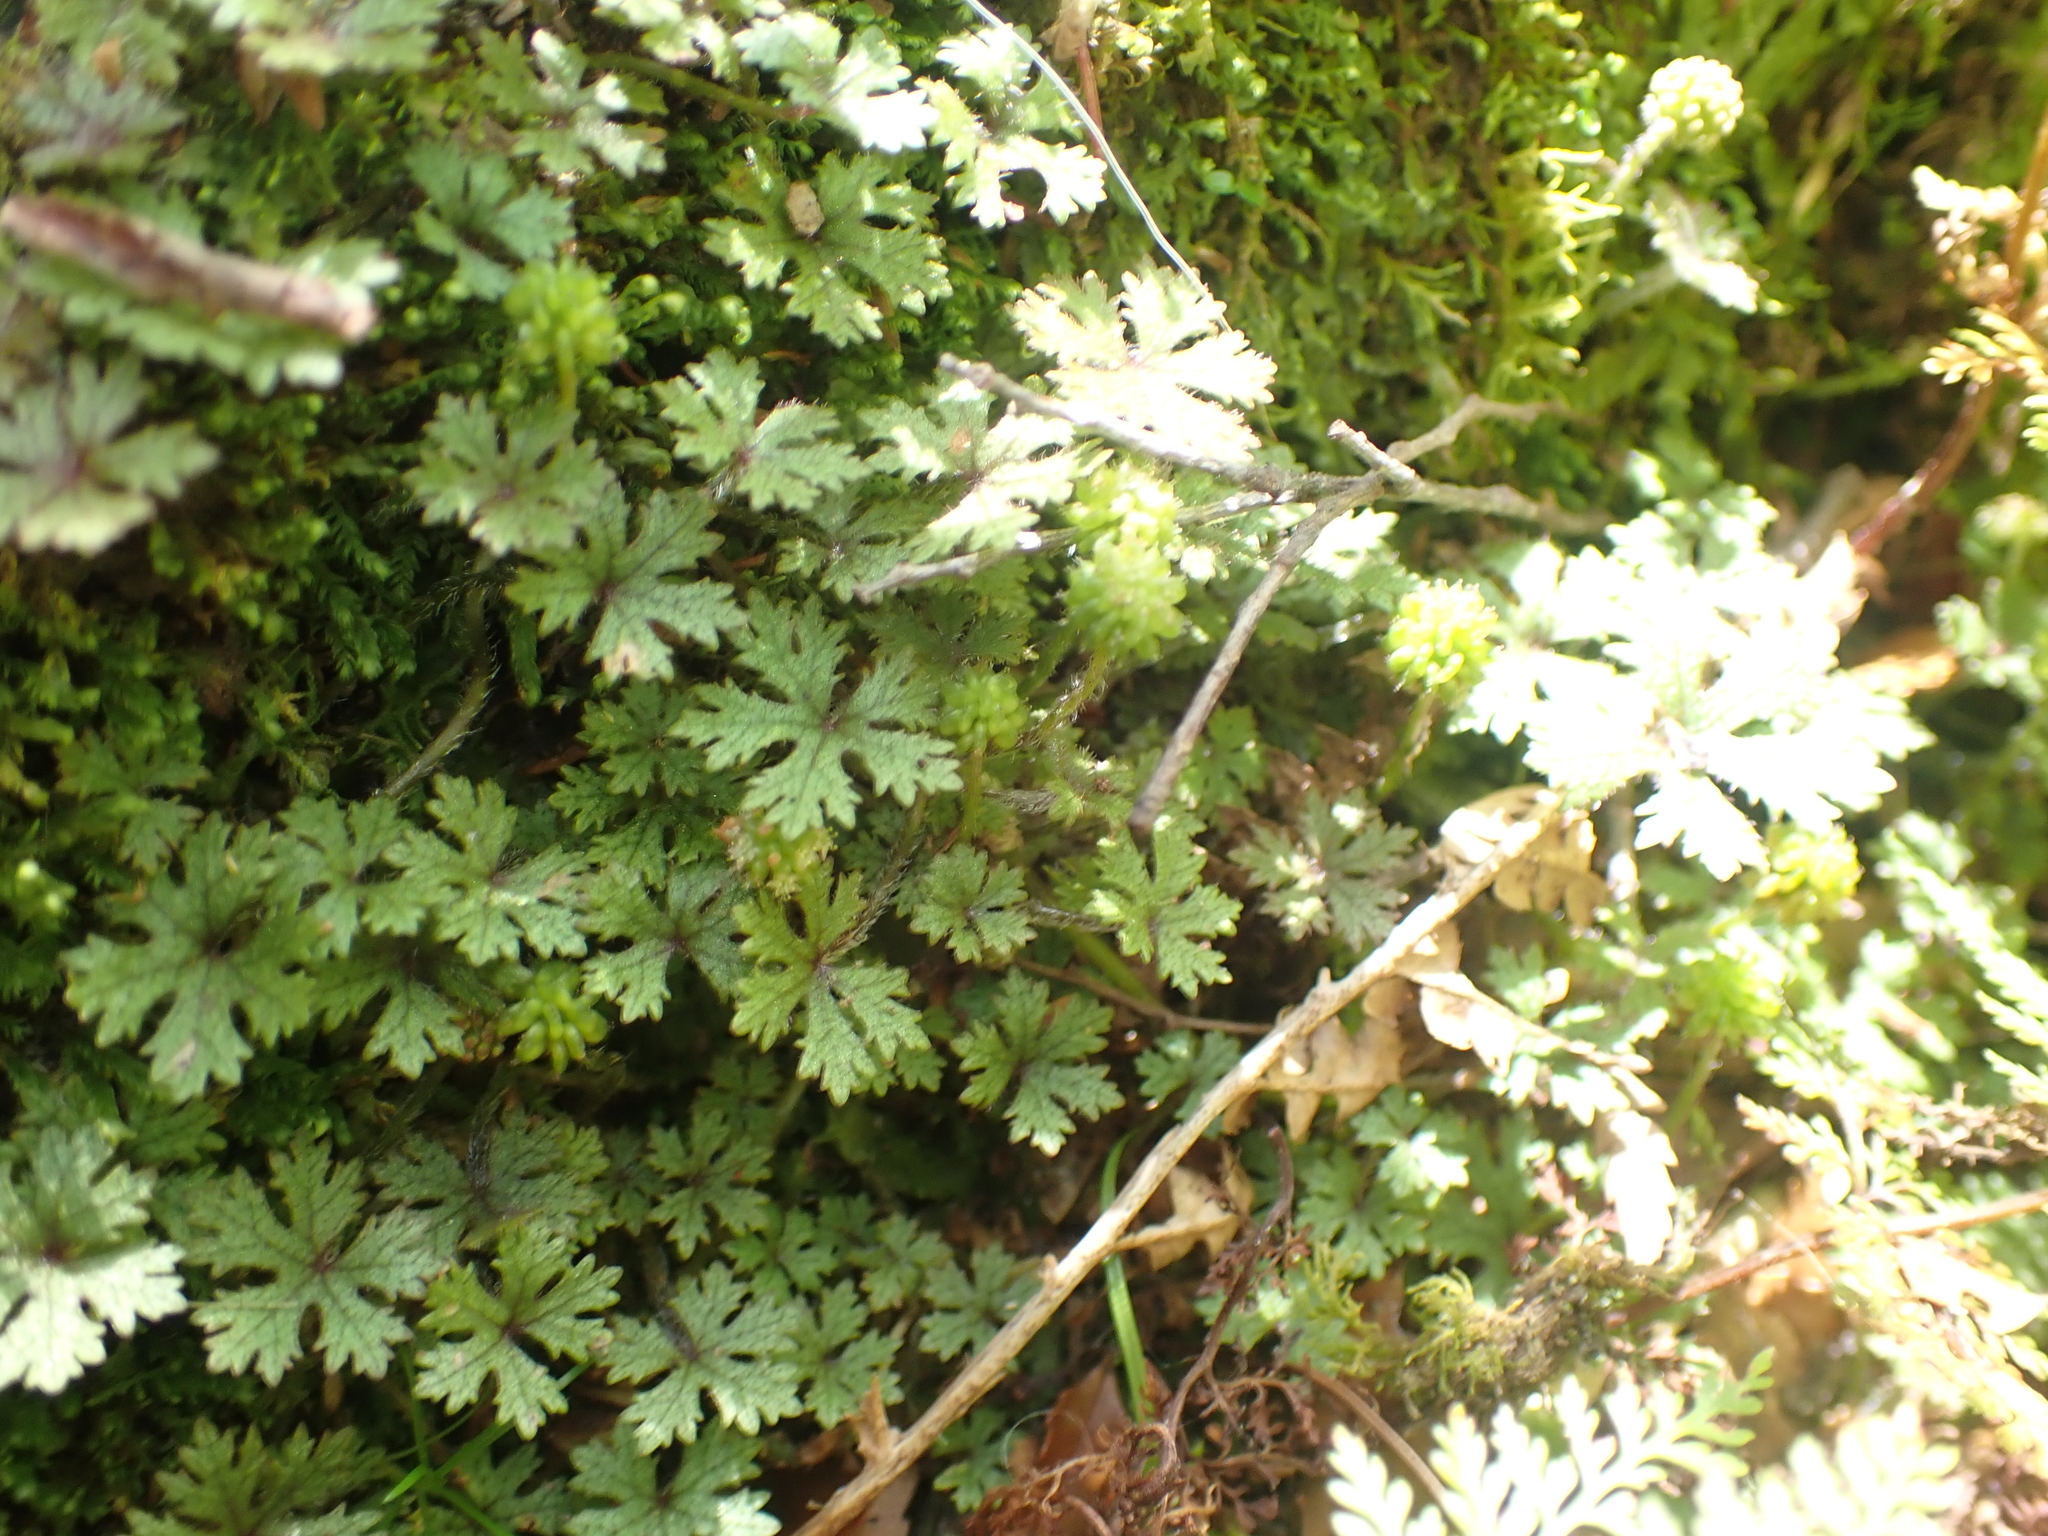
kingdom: Plantae
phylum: Tracheophyta
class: Magnoliopsida
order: Apiales
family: Araliaceae
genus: Hydrocotyle
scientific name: Hydrocotyle dissecta
